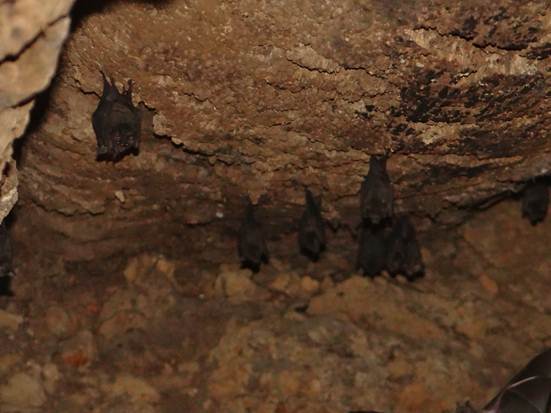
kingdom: Animalia
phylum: Chordata
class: Mammalia
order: Chiroptera
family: Phyllostomidae
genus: Carollia
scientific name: Carollia perspicillata
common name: Seba's short-tailed bat
